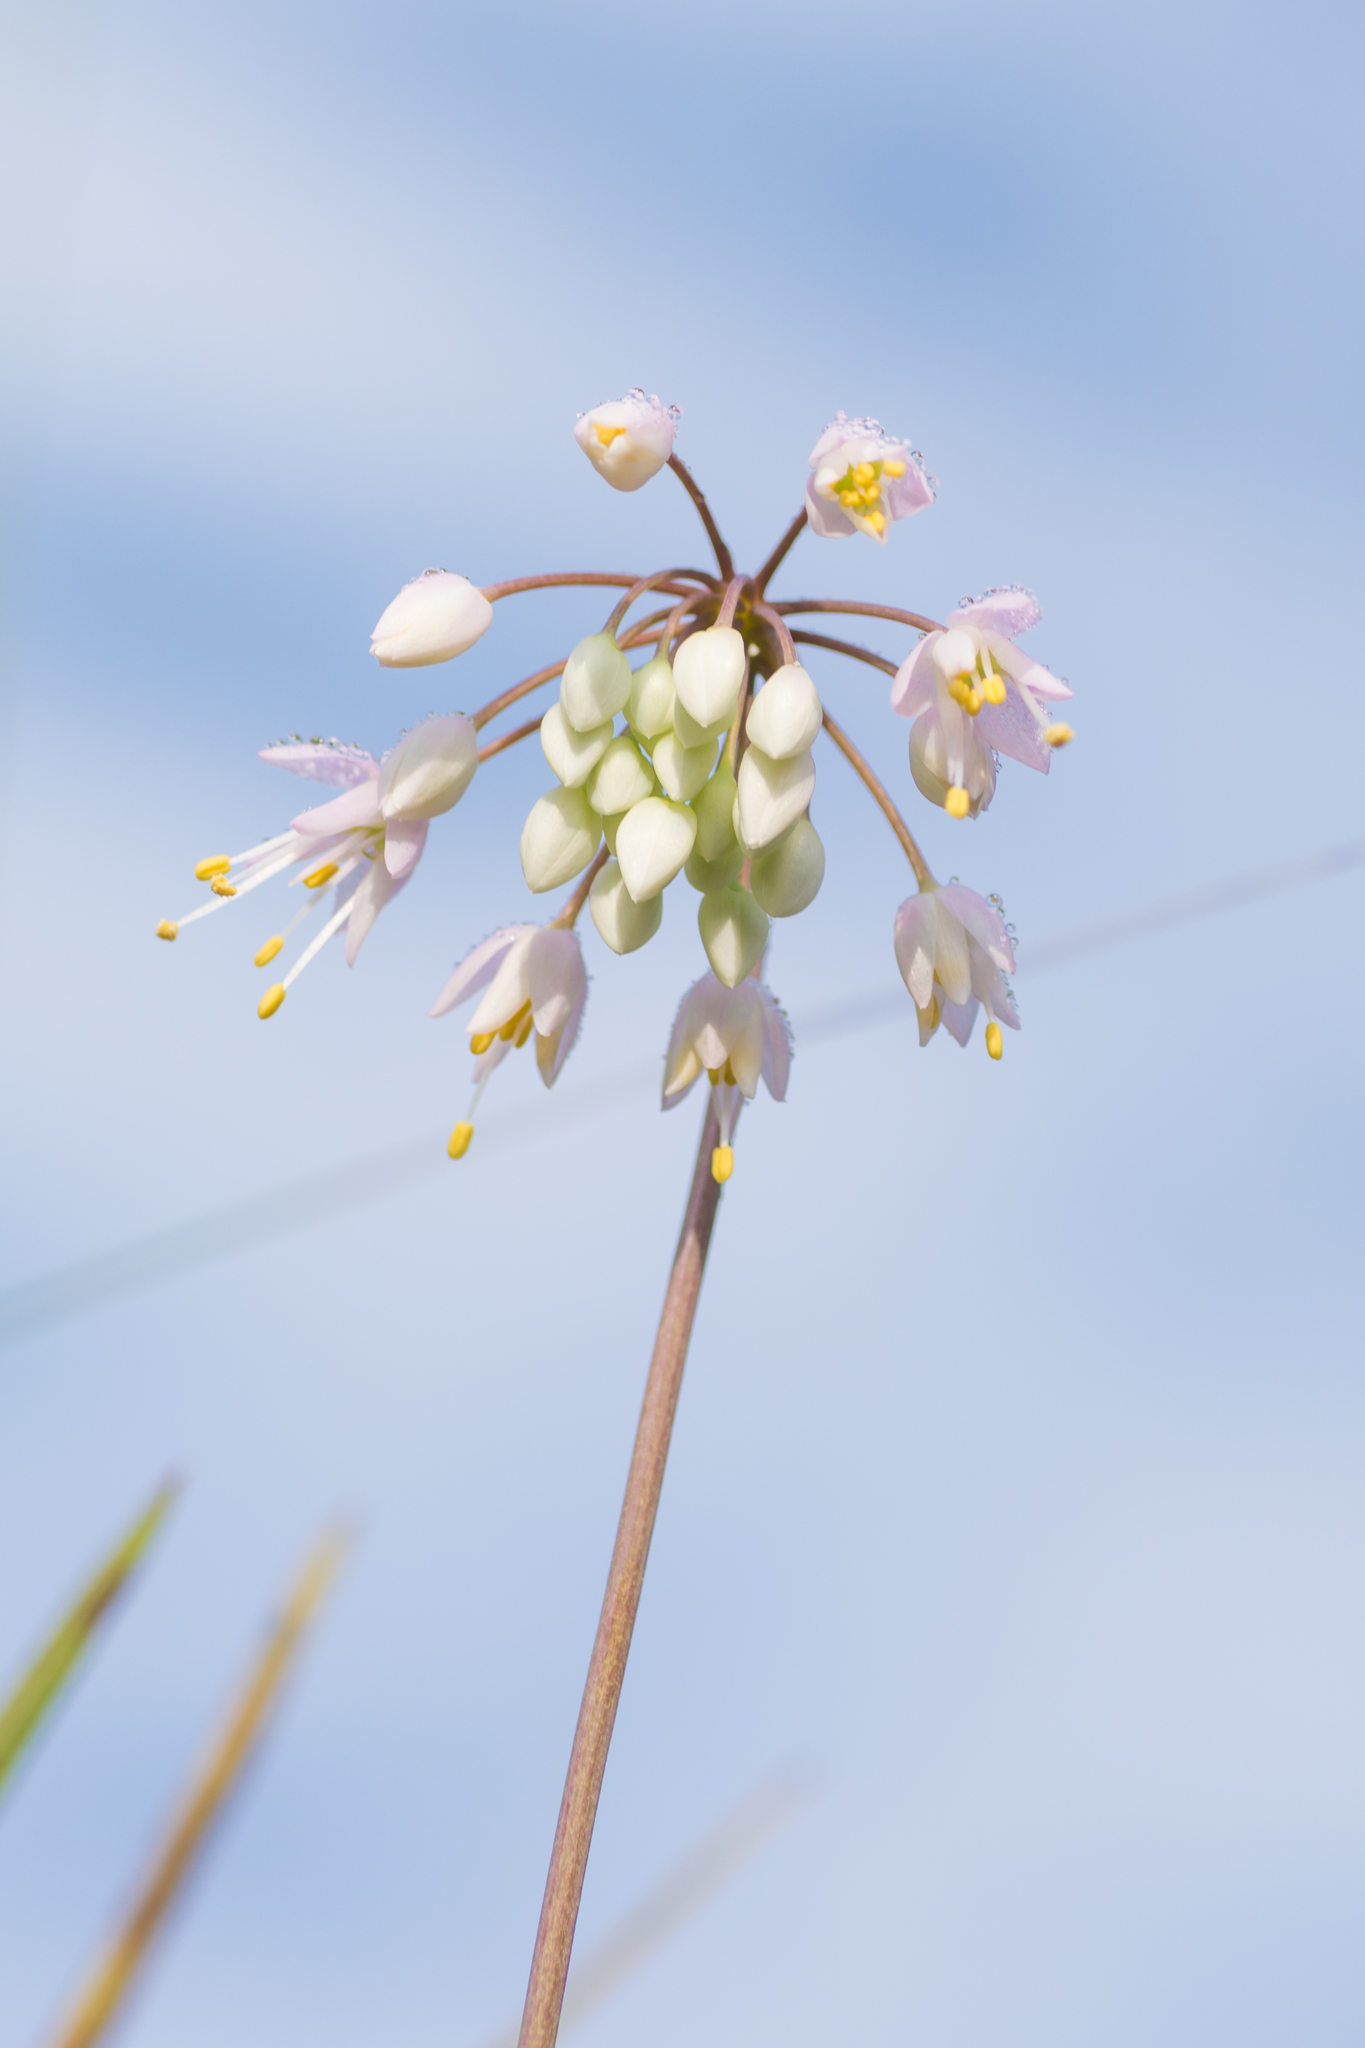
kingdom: Plantae
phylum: Tracheophyta
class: Liliopsida
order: Asparagales
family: Amaryllidaceae
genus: Allium
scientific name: Allium cernuum
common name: Nodding onion
